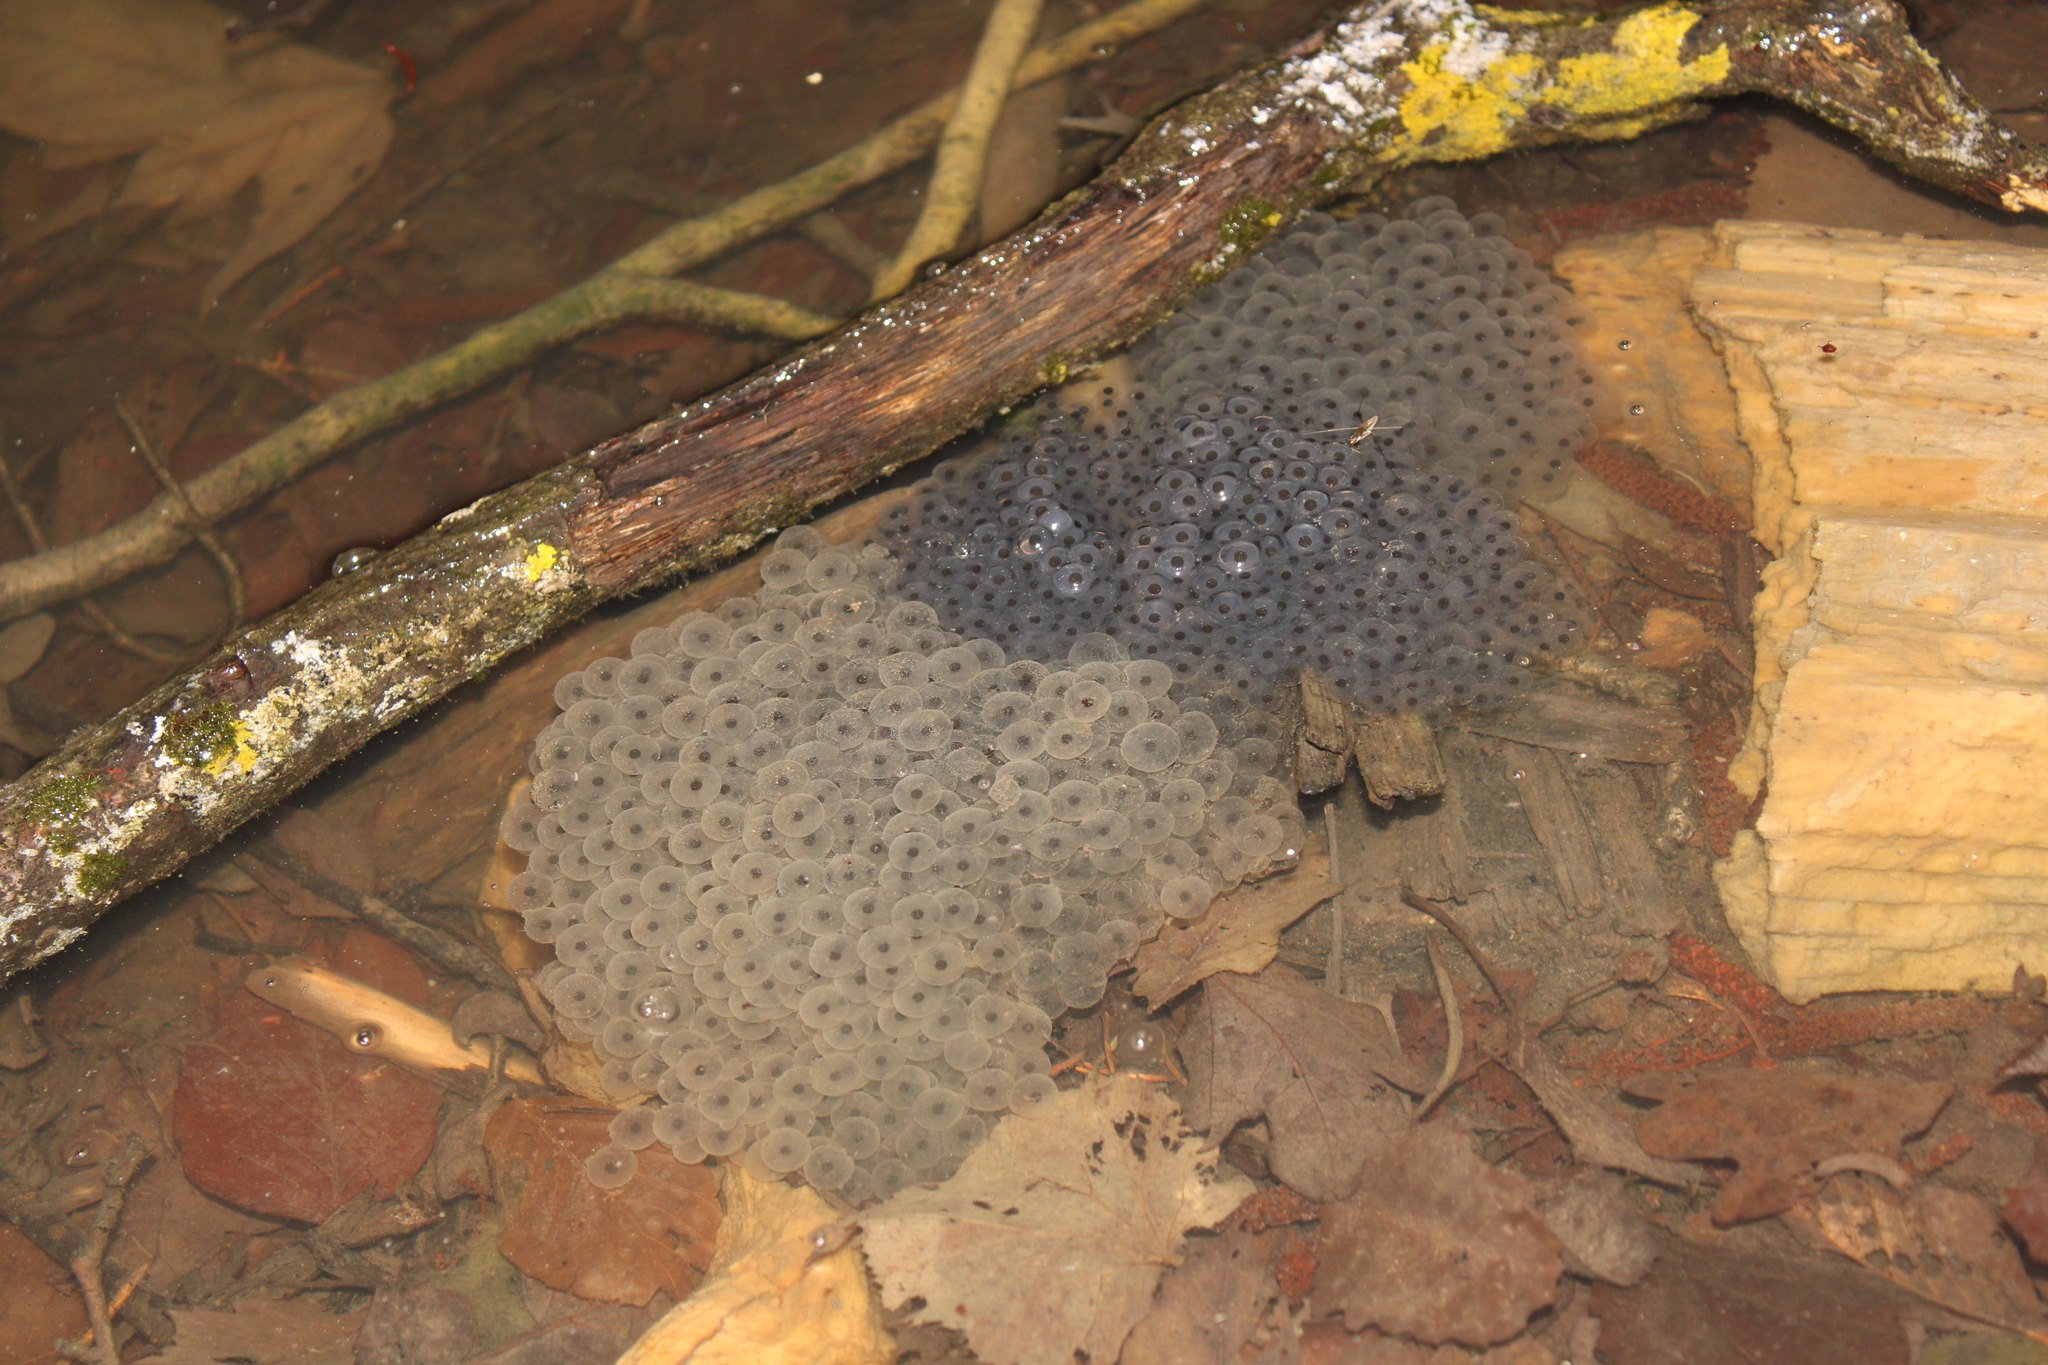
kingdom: Animalia
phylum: Chordata
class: Amphibia
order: Anura
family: Ranidae
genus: Rana
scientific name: Rana temporaria
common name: Common frog
